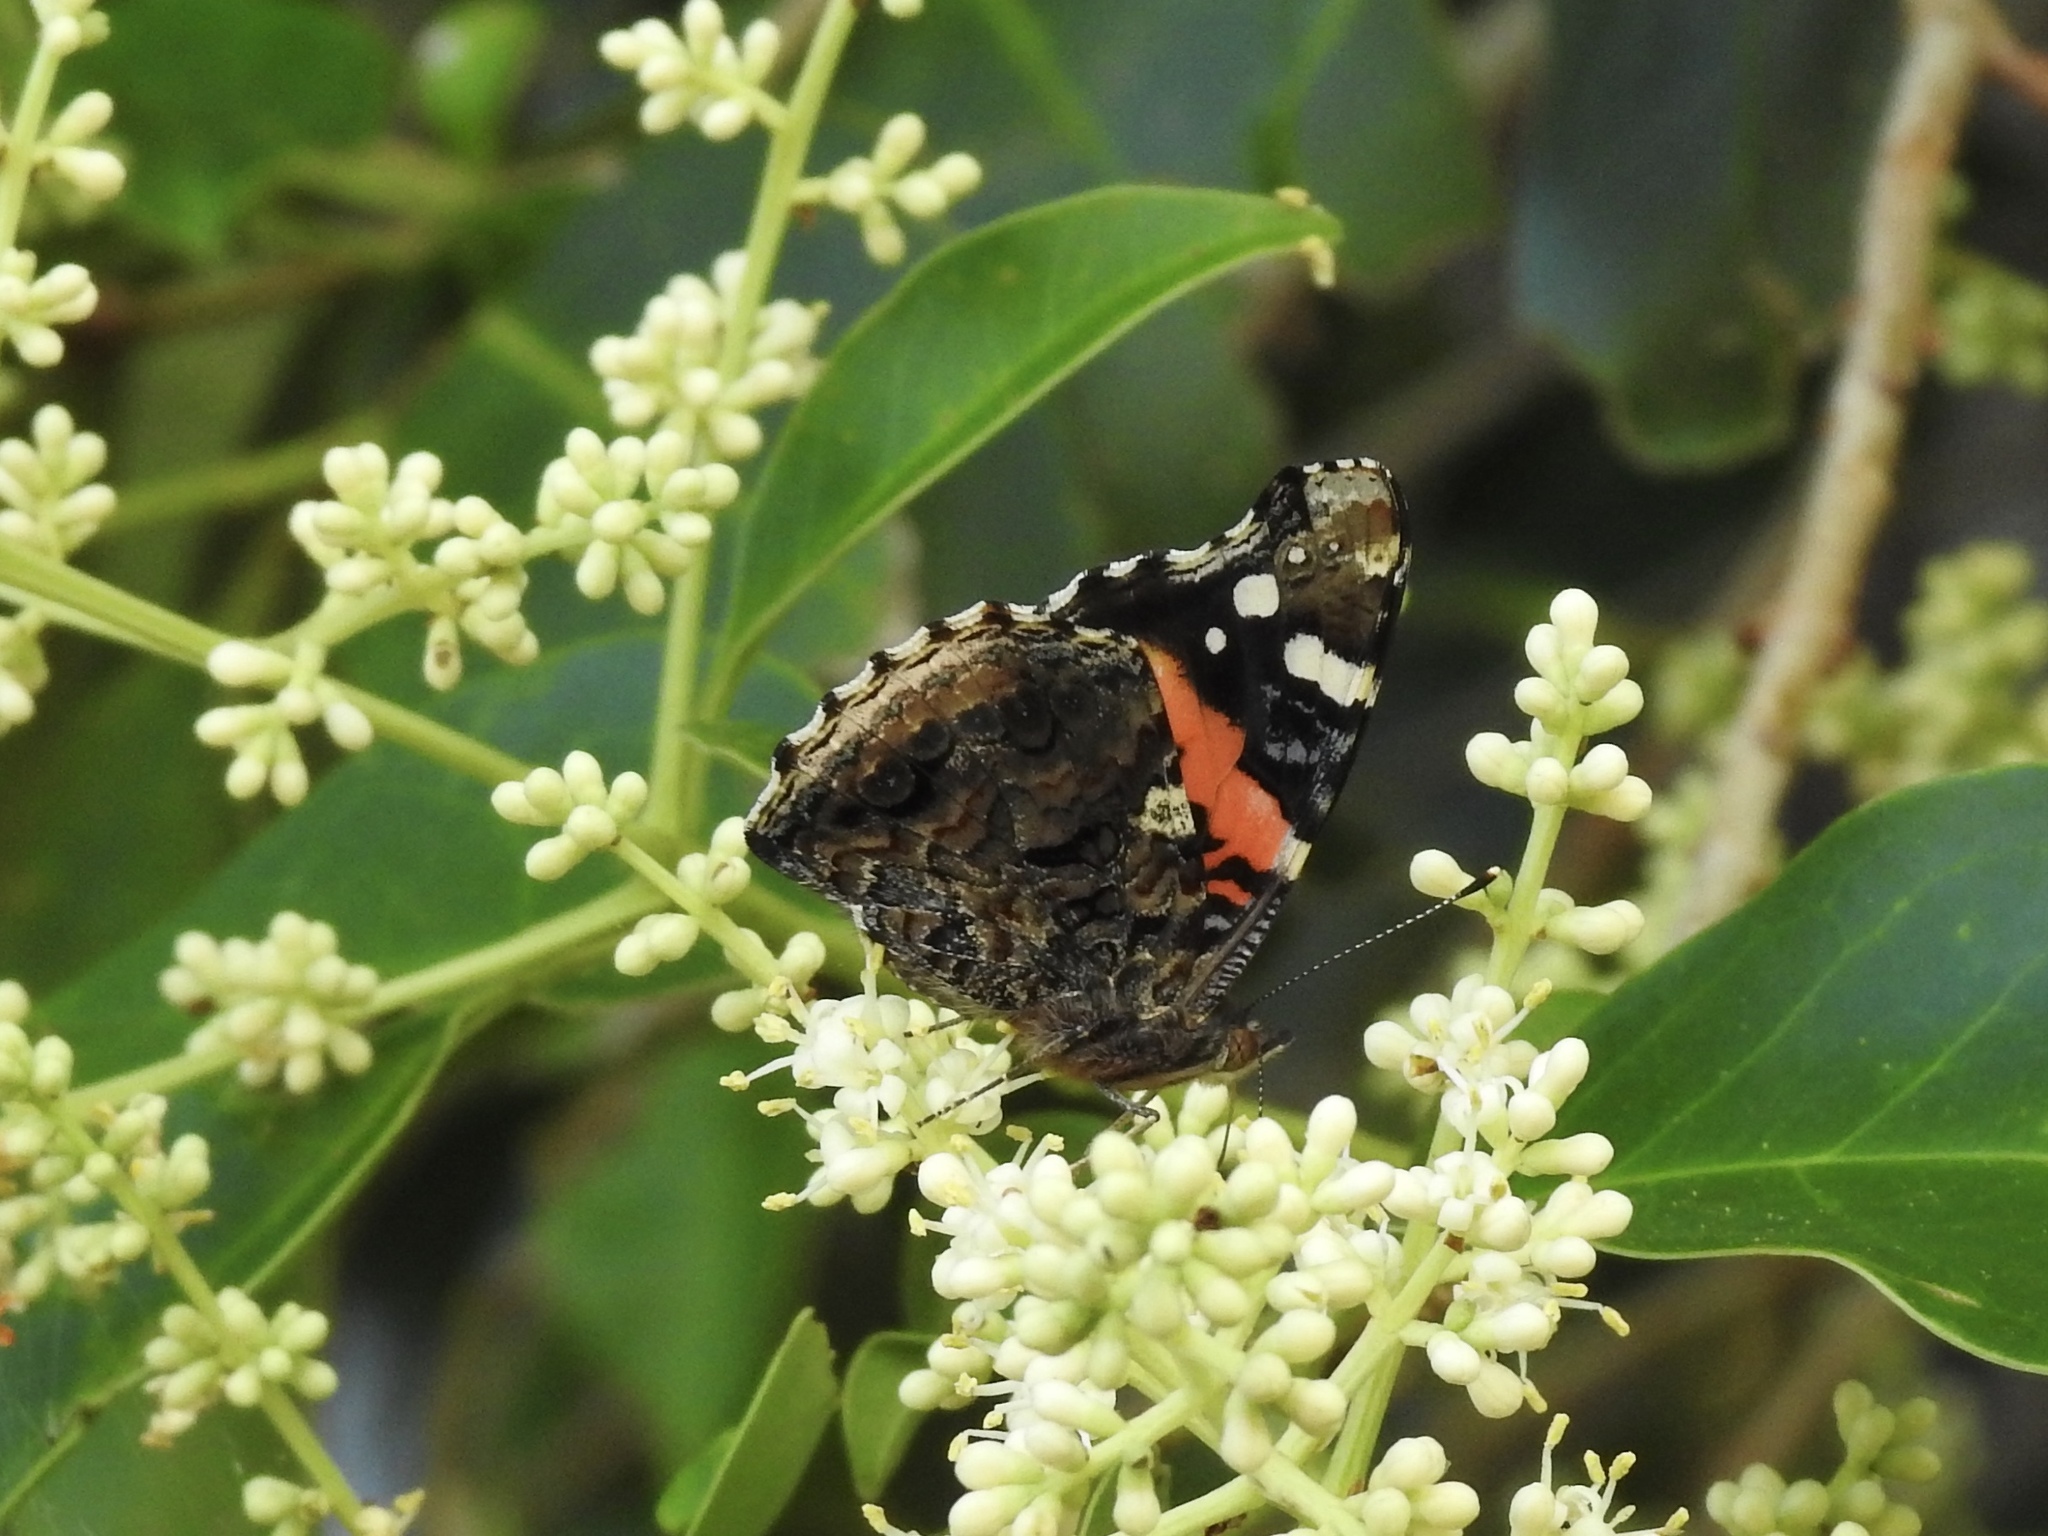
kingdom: Animalia
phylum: Arthropoda
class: Insecta
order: Lepidoptera
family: Nymphalidae
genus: Vanessa
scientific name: Vanessa atalanta
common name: Red admiral
